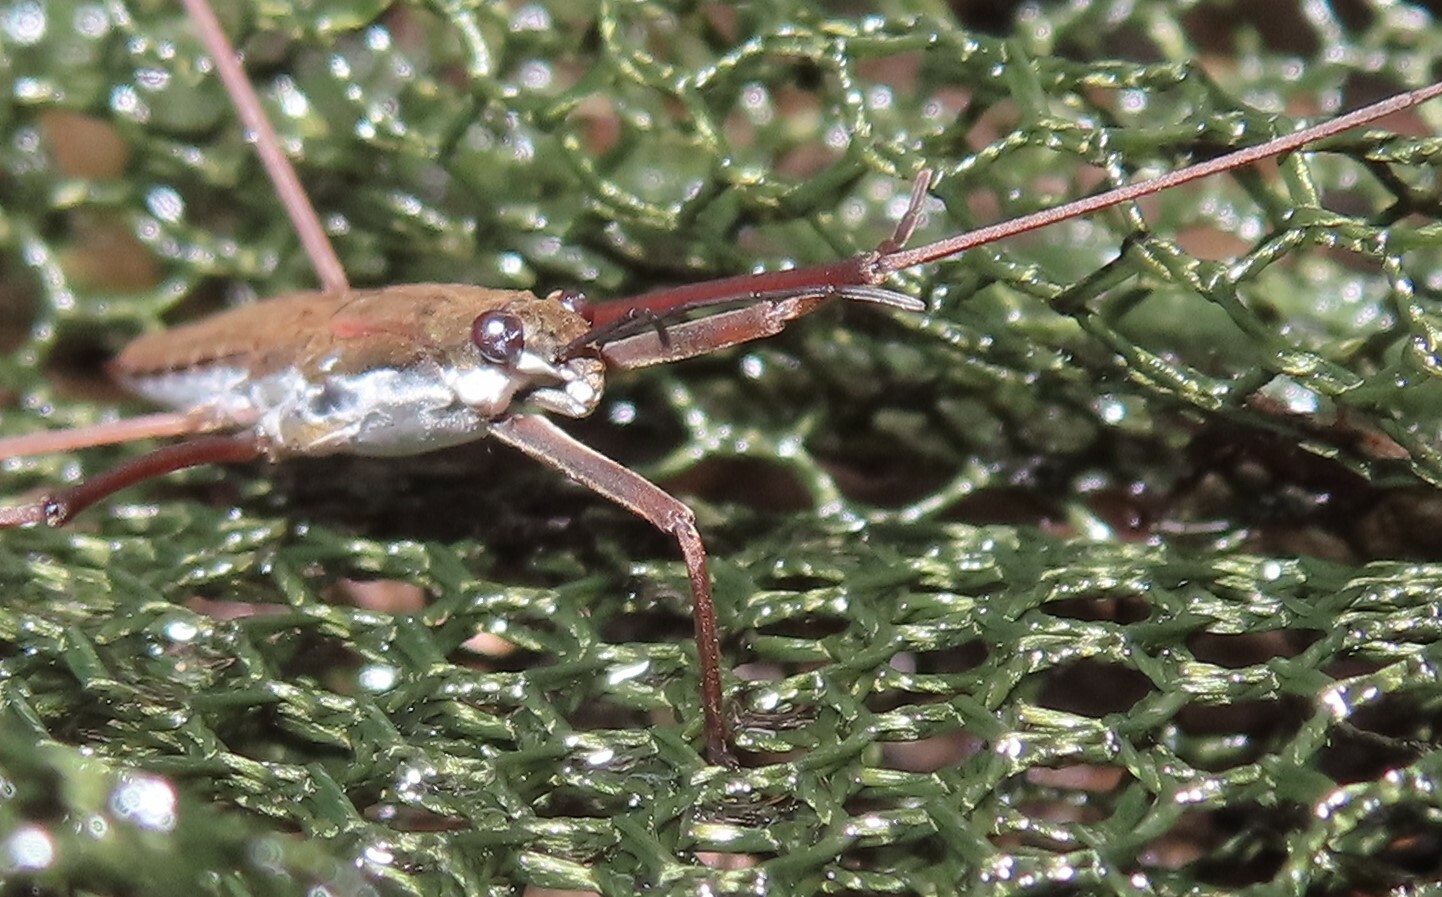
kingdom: Animalia
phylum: Arthropoda
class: Insecta
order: Hemiptera
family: Gerridae
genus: Aquarius
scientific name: Aquarius remigis
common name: Common water strider
